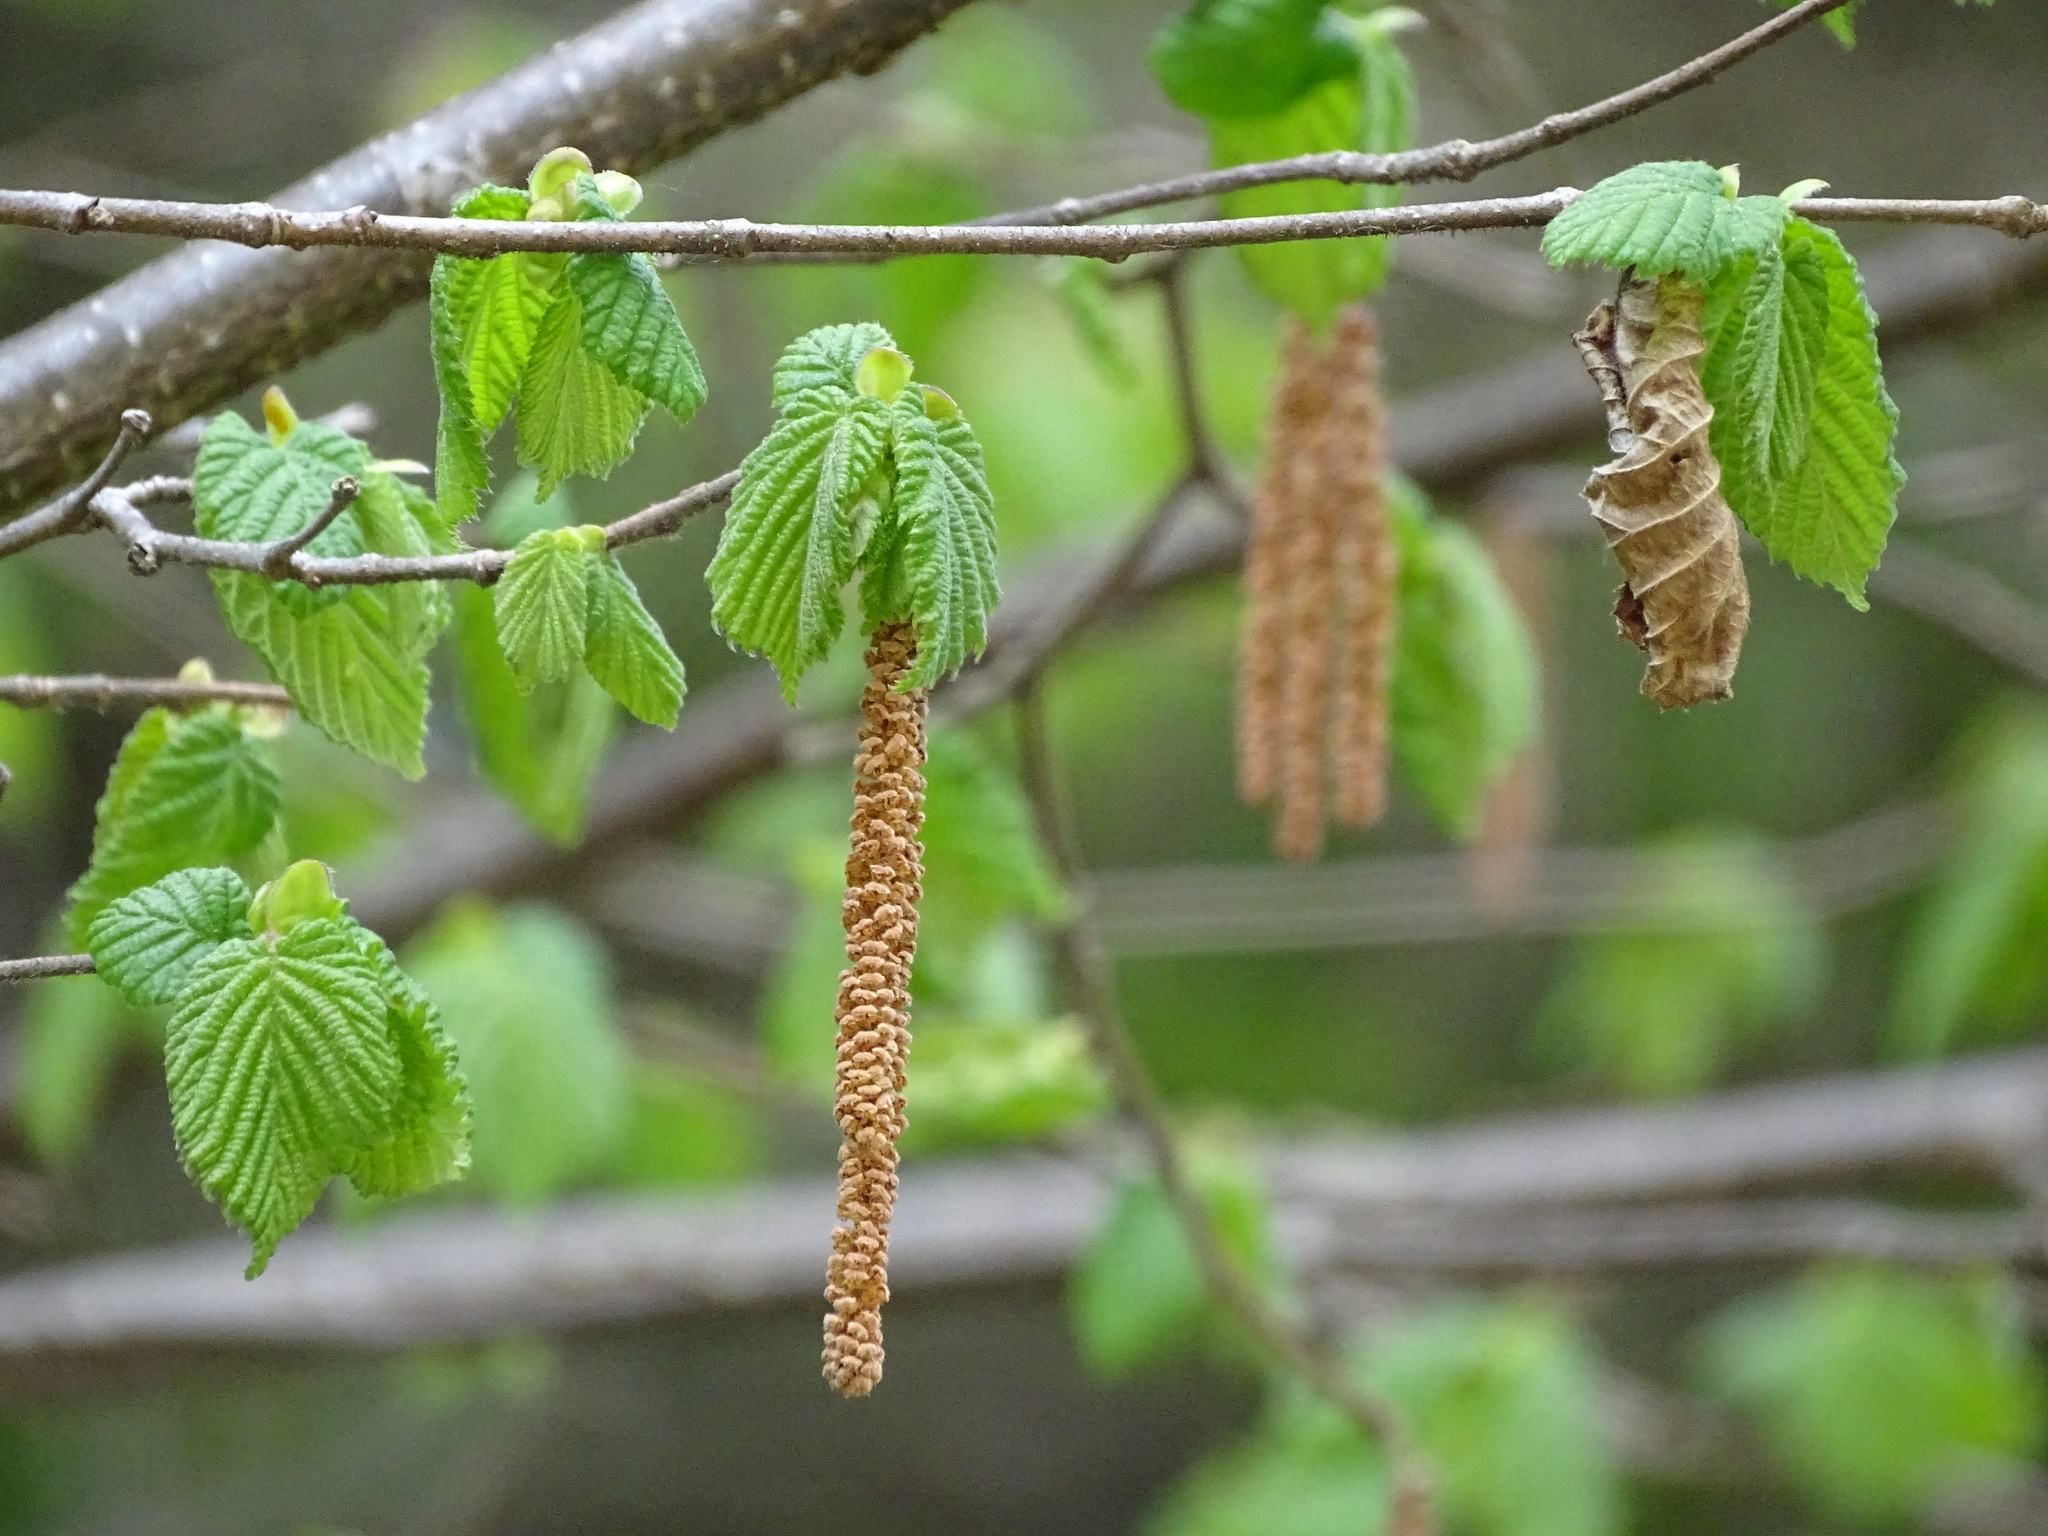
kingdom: Plantae
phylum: Tracheophyta
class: Magnoliopsida
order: Fagales
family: Betulaceae
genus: Corylus
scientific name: Corylus avellana
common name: European hazel
